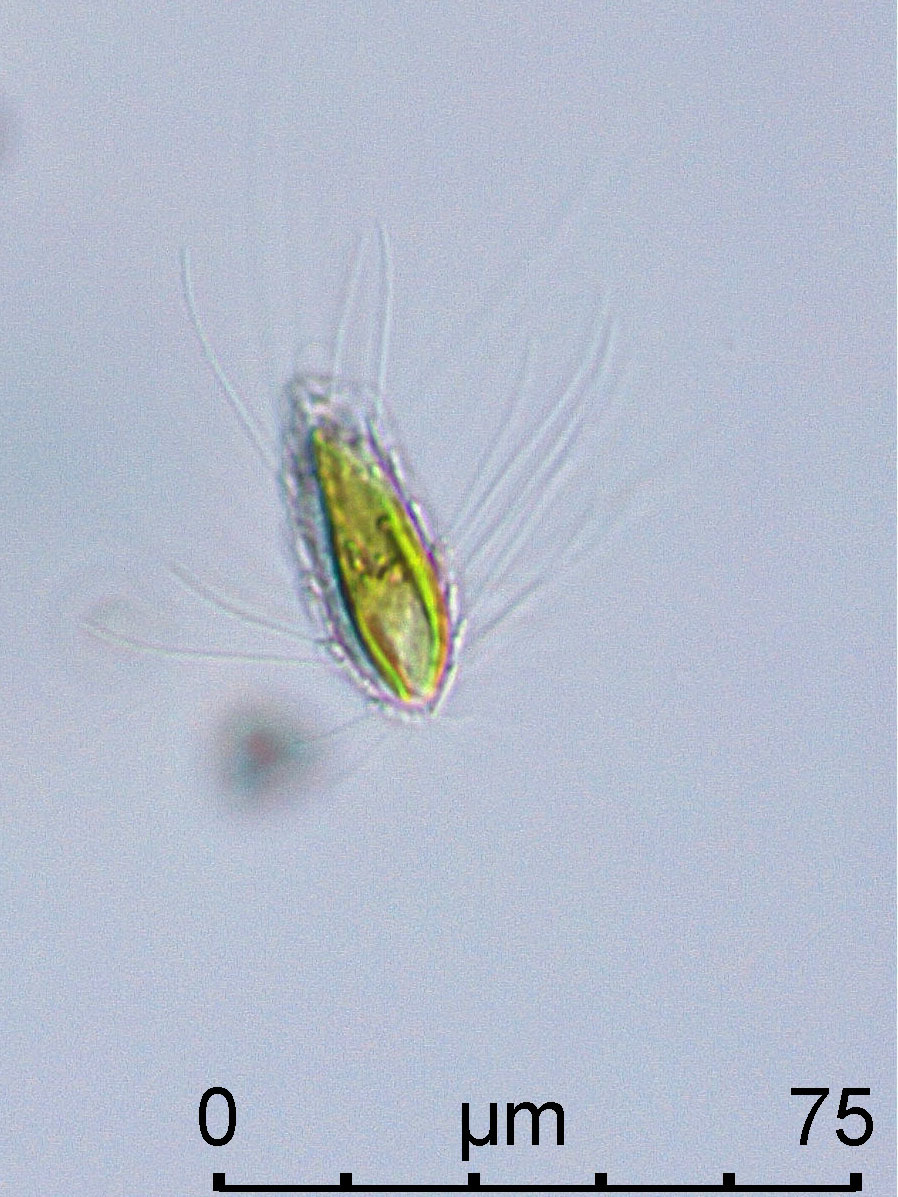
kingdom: Chromista
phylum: Ochrophyta
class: Chrysophyceae
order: Synurales
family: Mallomonadaceae
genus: Mallomonas
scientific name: Mallomonas caudata
